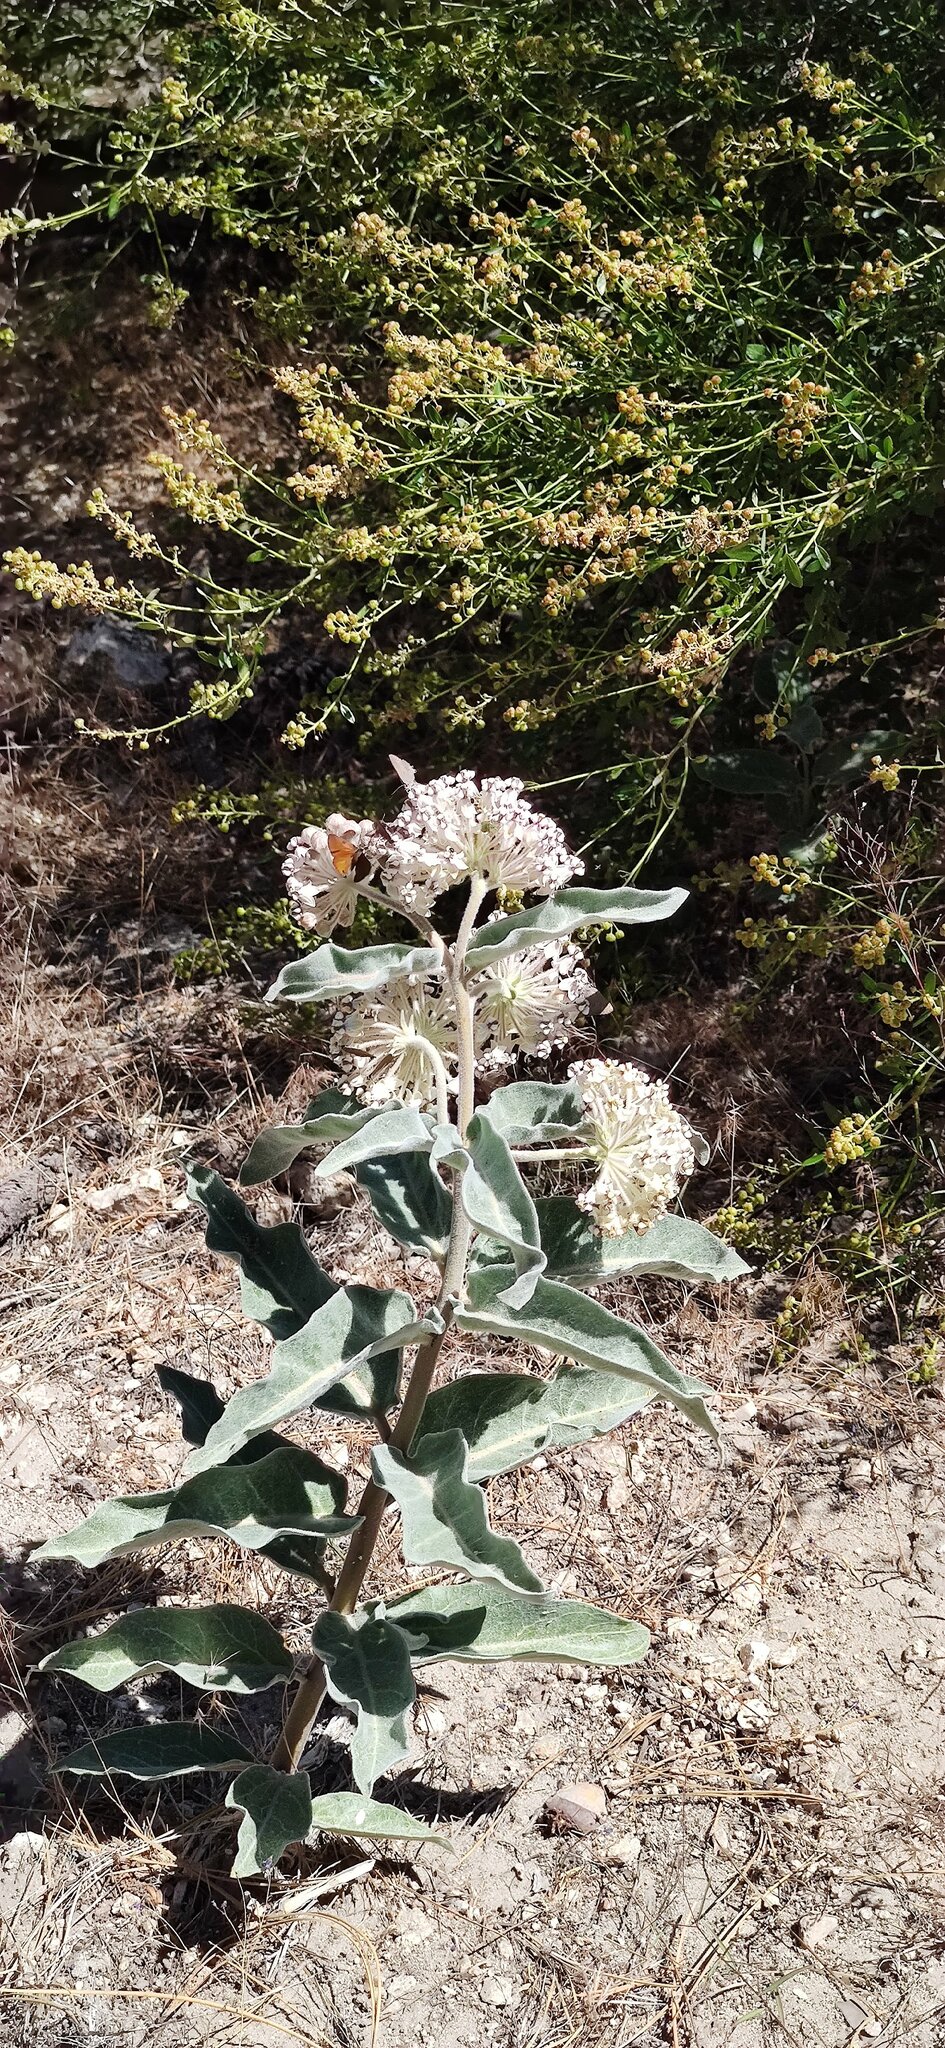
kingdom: Plantae
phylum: Tracheophyta
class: Magnoliopsida
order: Gentianales
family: Apocynaceae
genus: Asclepias
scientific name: Asclepias eriocarpa
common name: Indian milkweed
